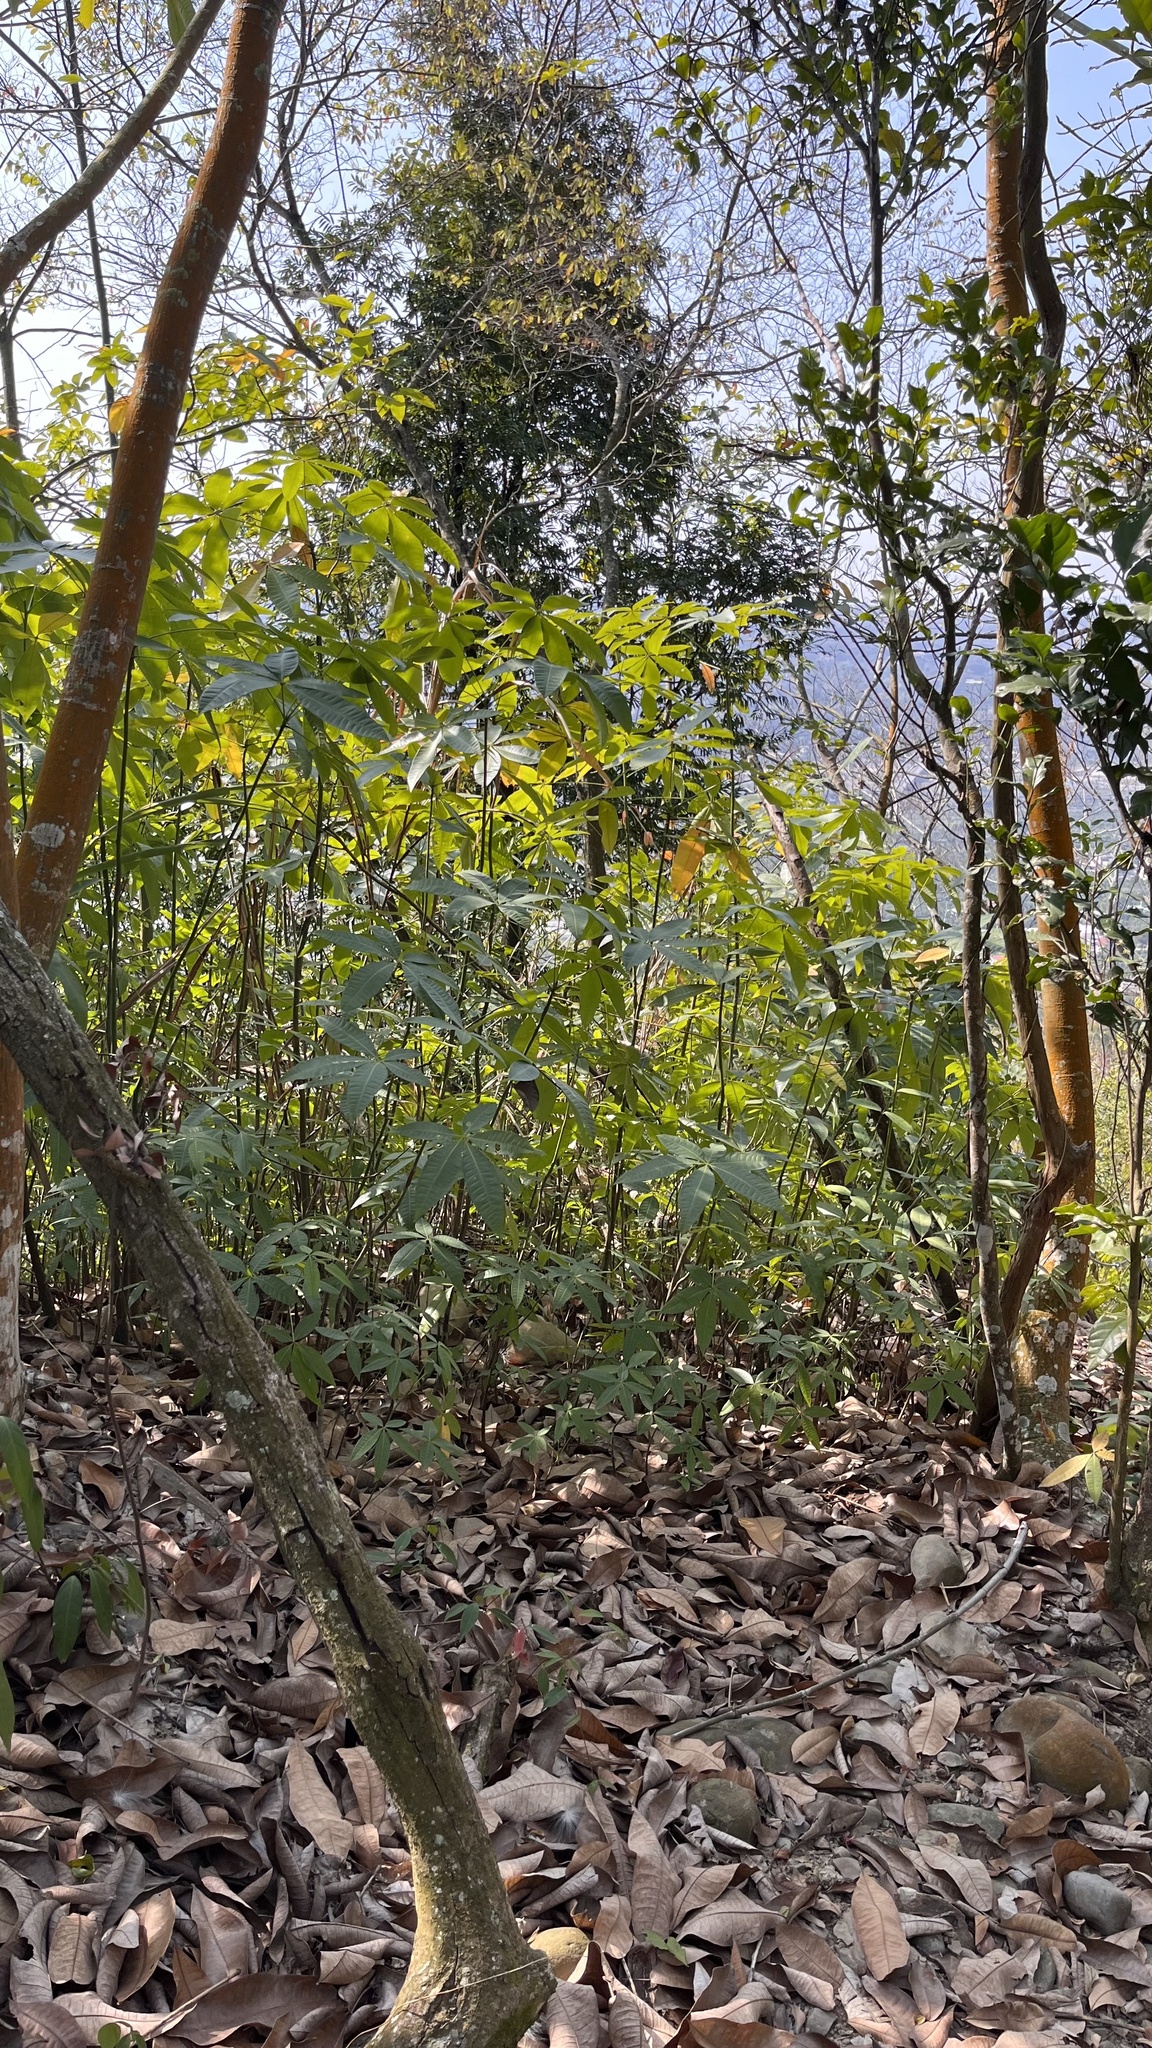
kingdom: Plantae
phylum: Tracheophyta
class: Magnoliopsida
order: Malvales
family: Malvaceae
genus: Pachira
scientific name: Pachira glabra
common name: Moneytree
